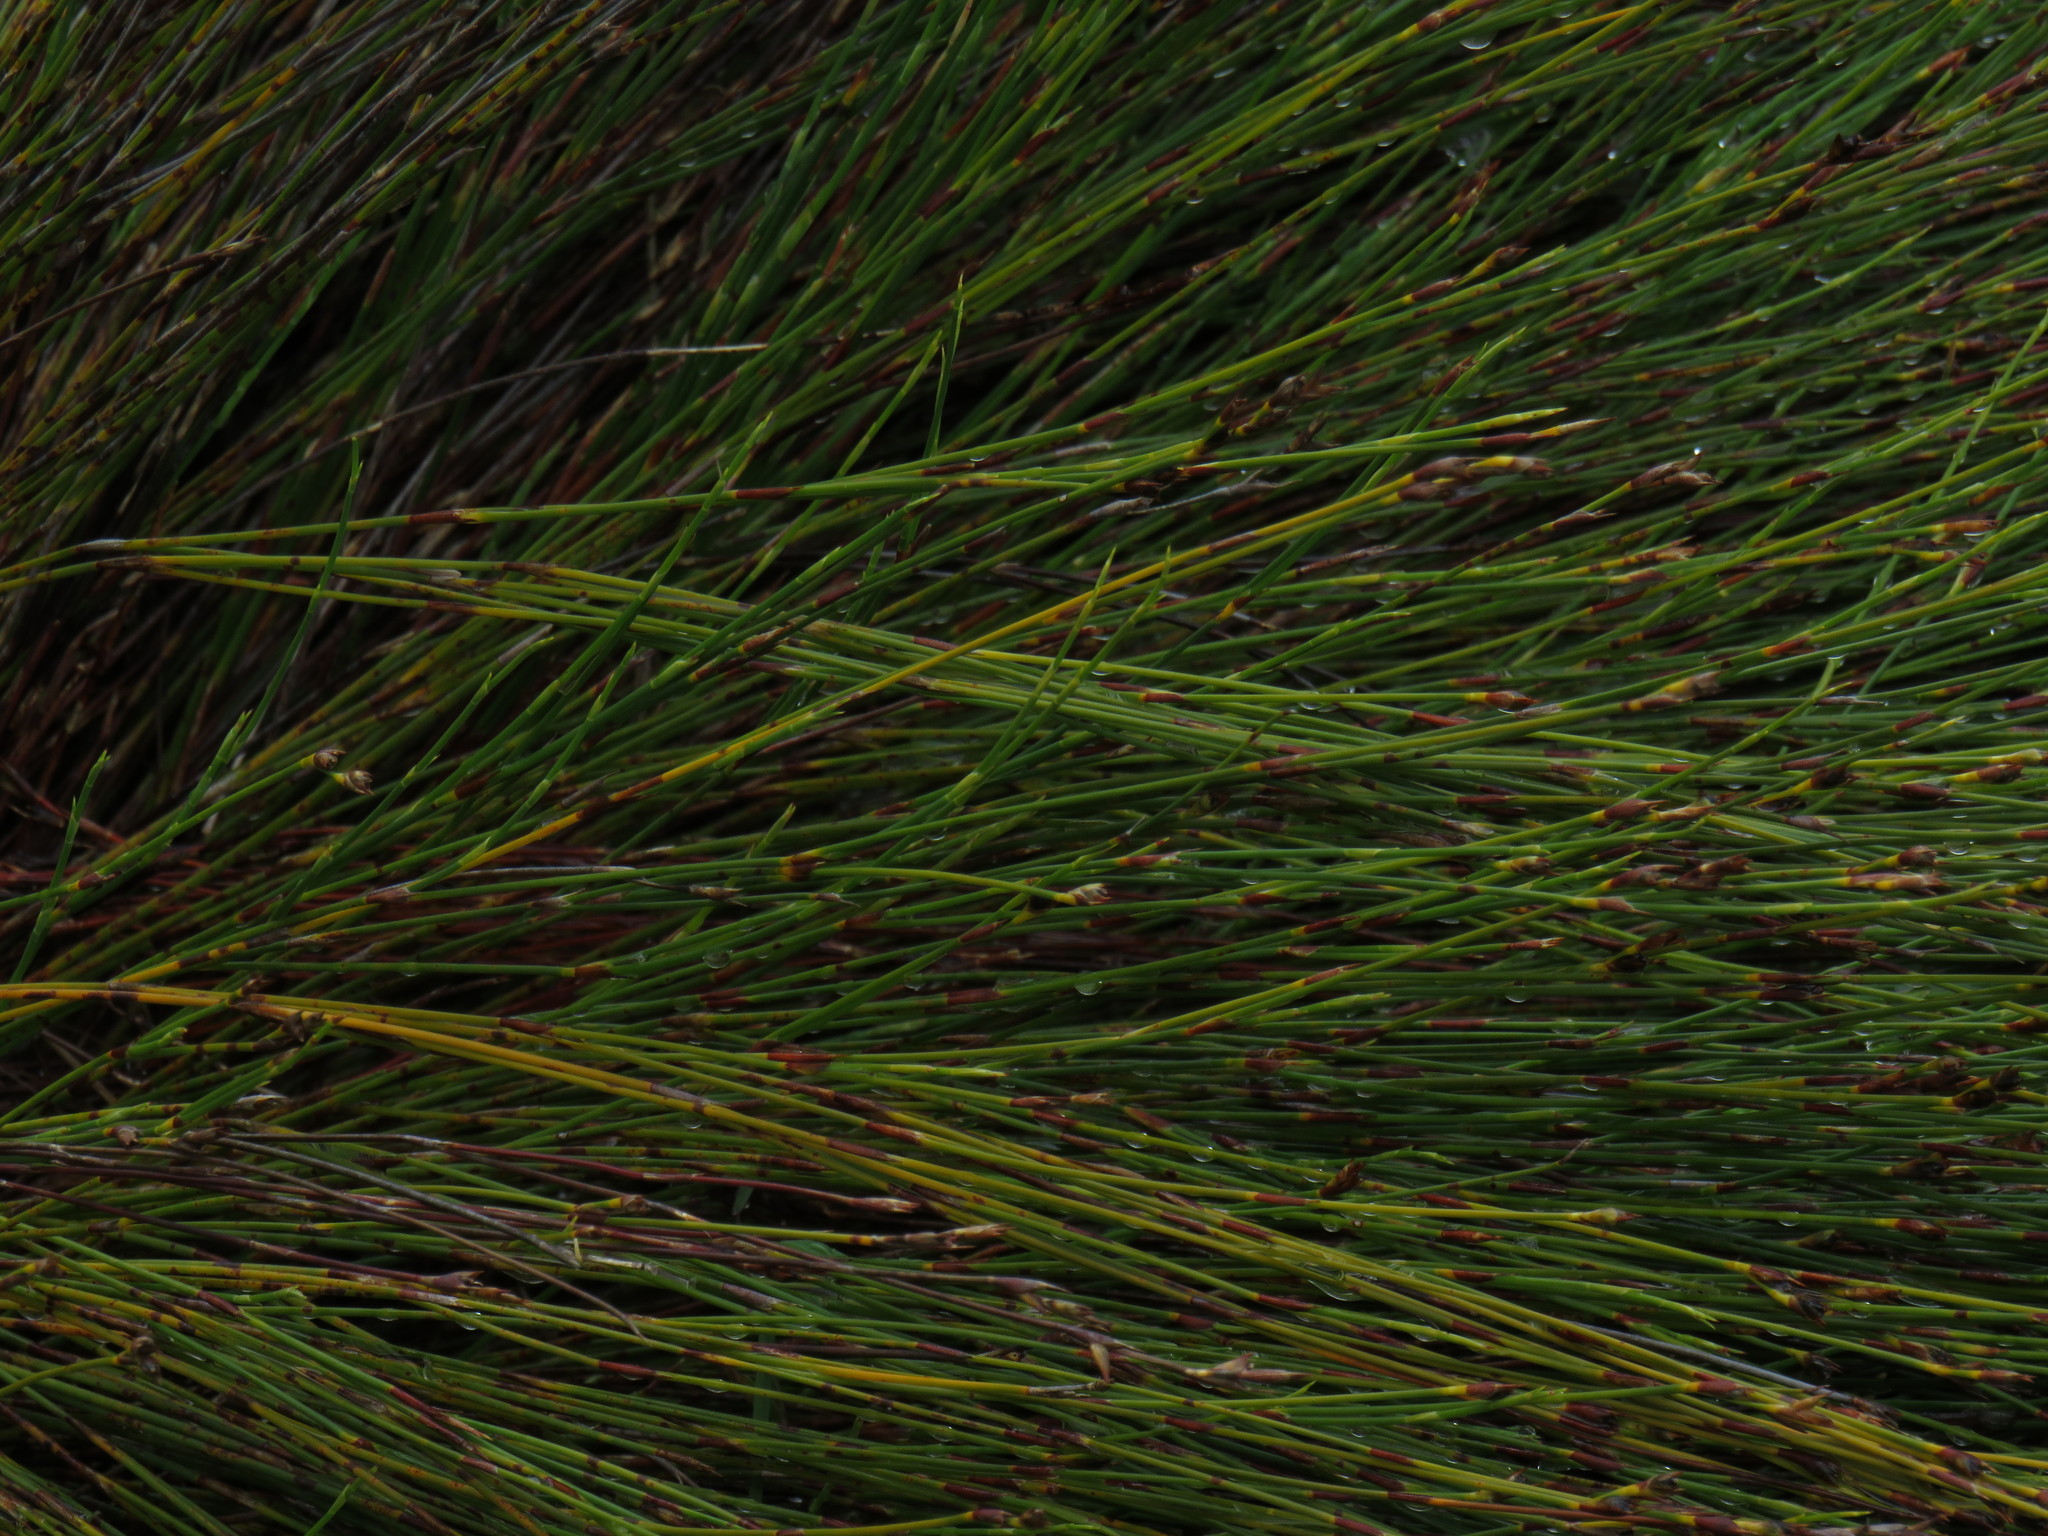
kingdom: Plantae
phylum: Tracheophyta
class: Liliopsida
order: Poales
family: Restionaceae
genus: Mastersiella
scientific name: Mastersiella digitata
